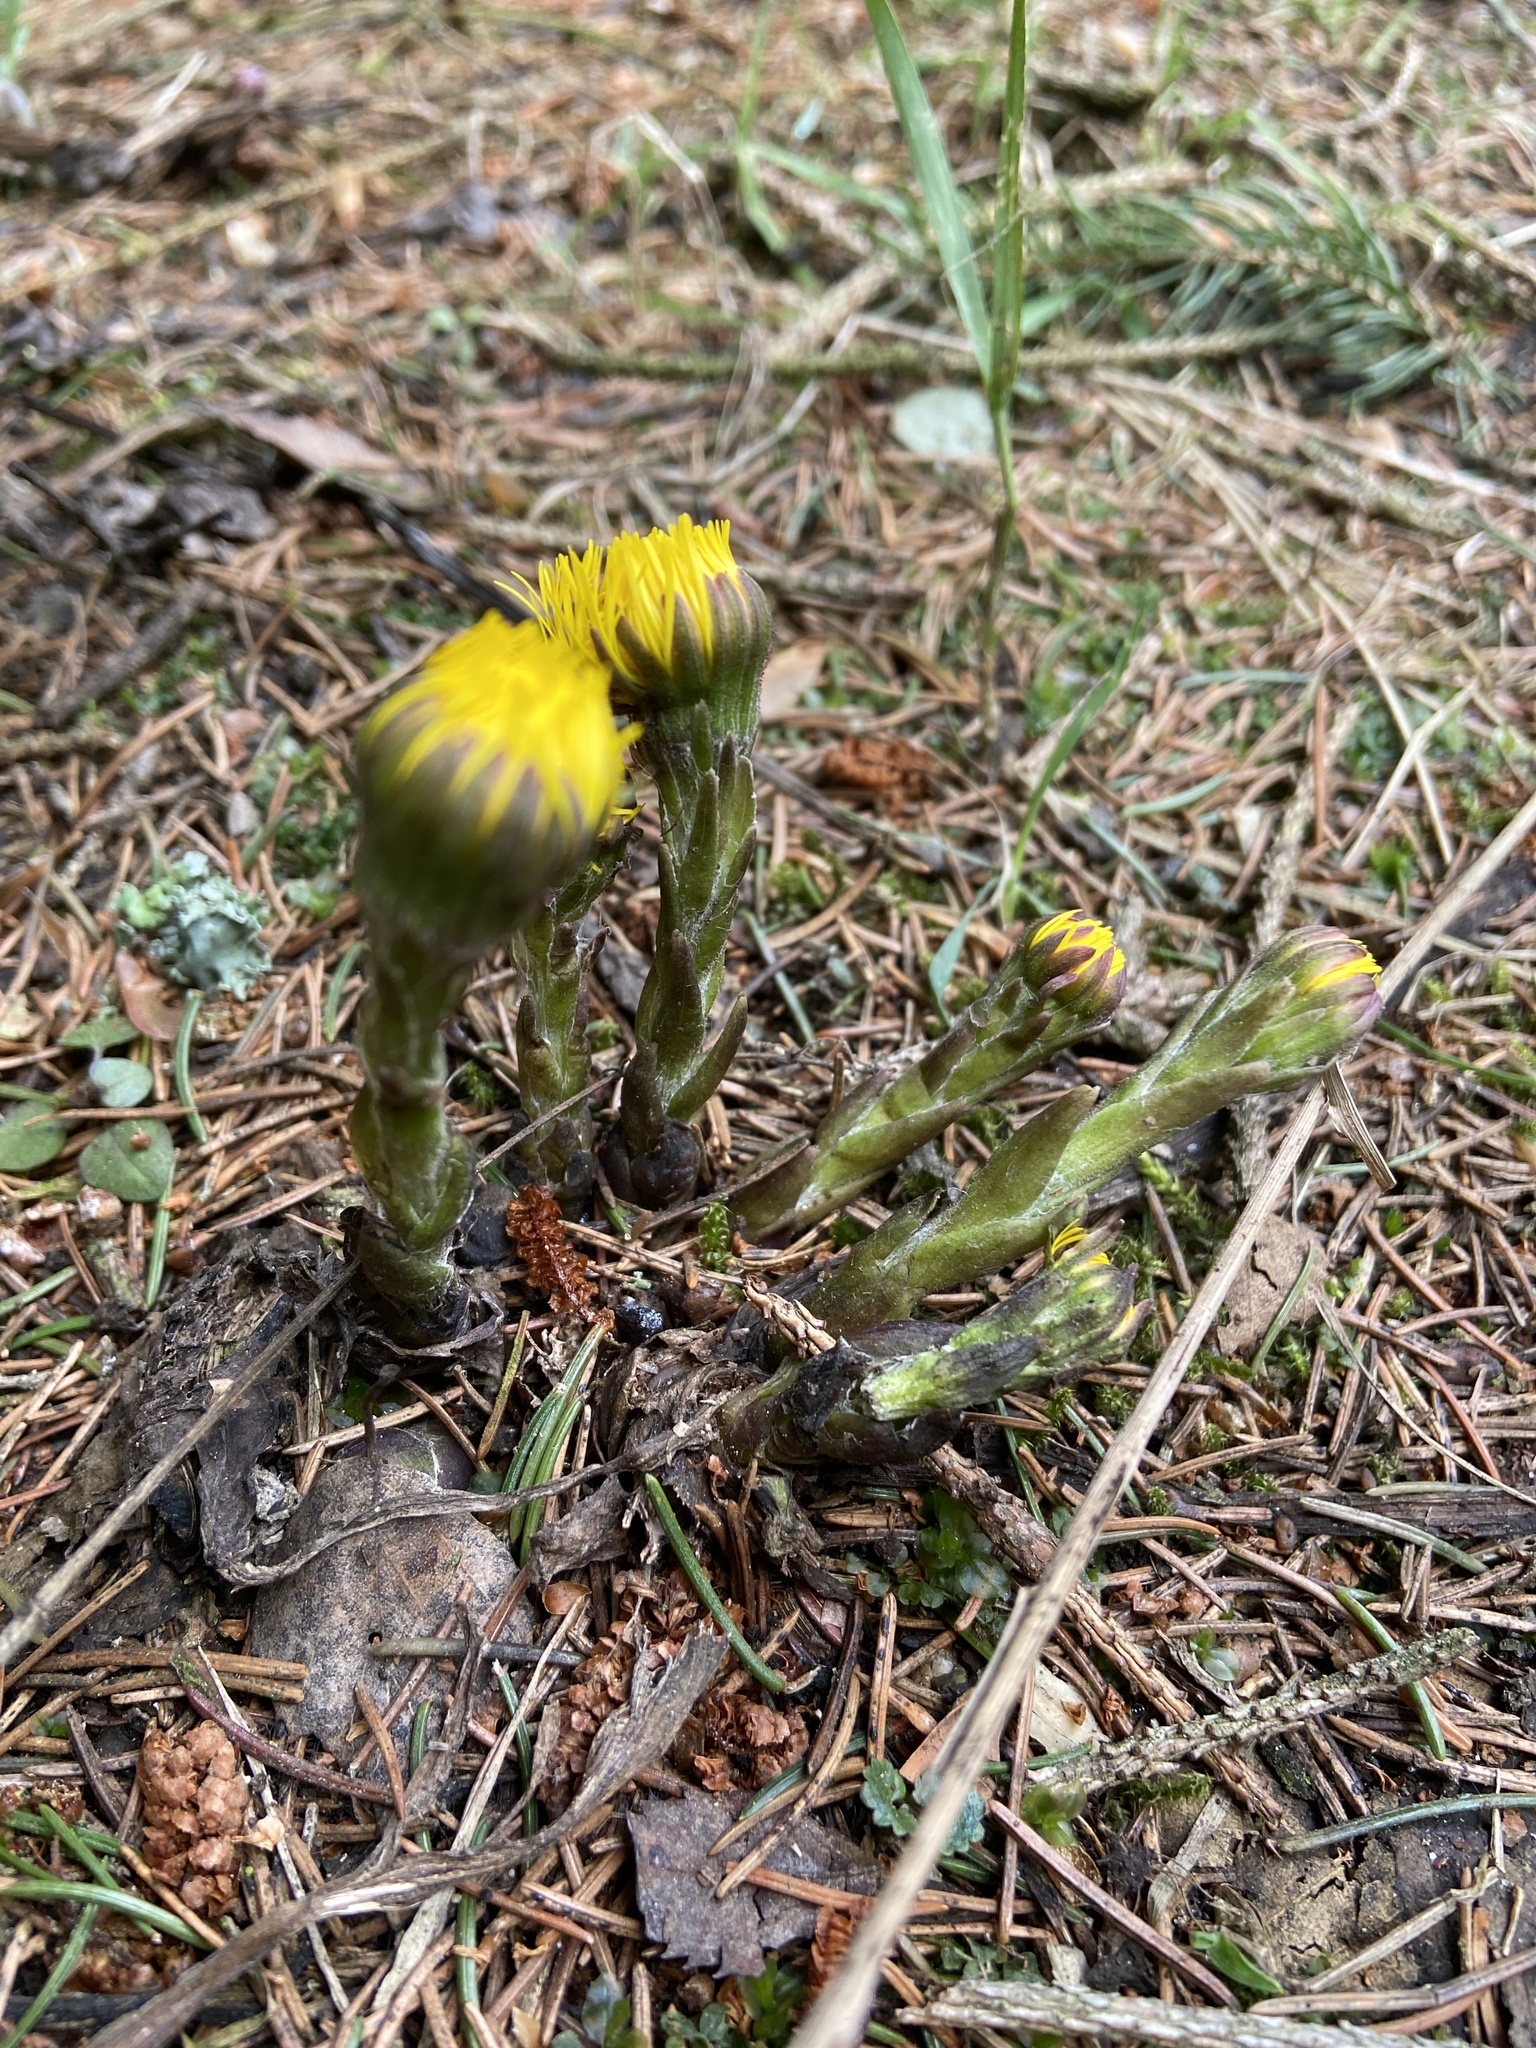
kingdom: Plantae
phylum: Tracheophyta
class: Magnoliopsida
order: Asterales
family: Asteraceae
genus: Tussilago
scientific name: Tussilago farfara
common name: Coltsfoot
